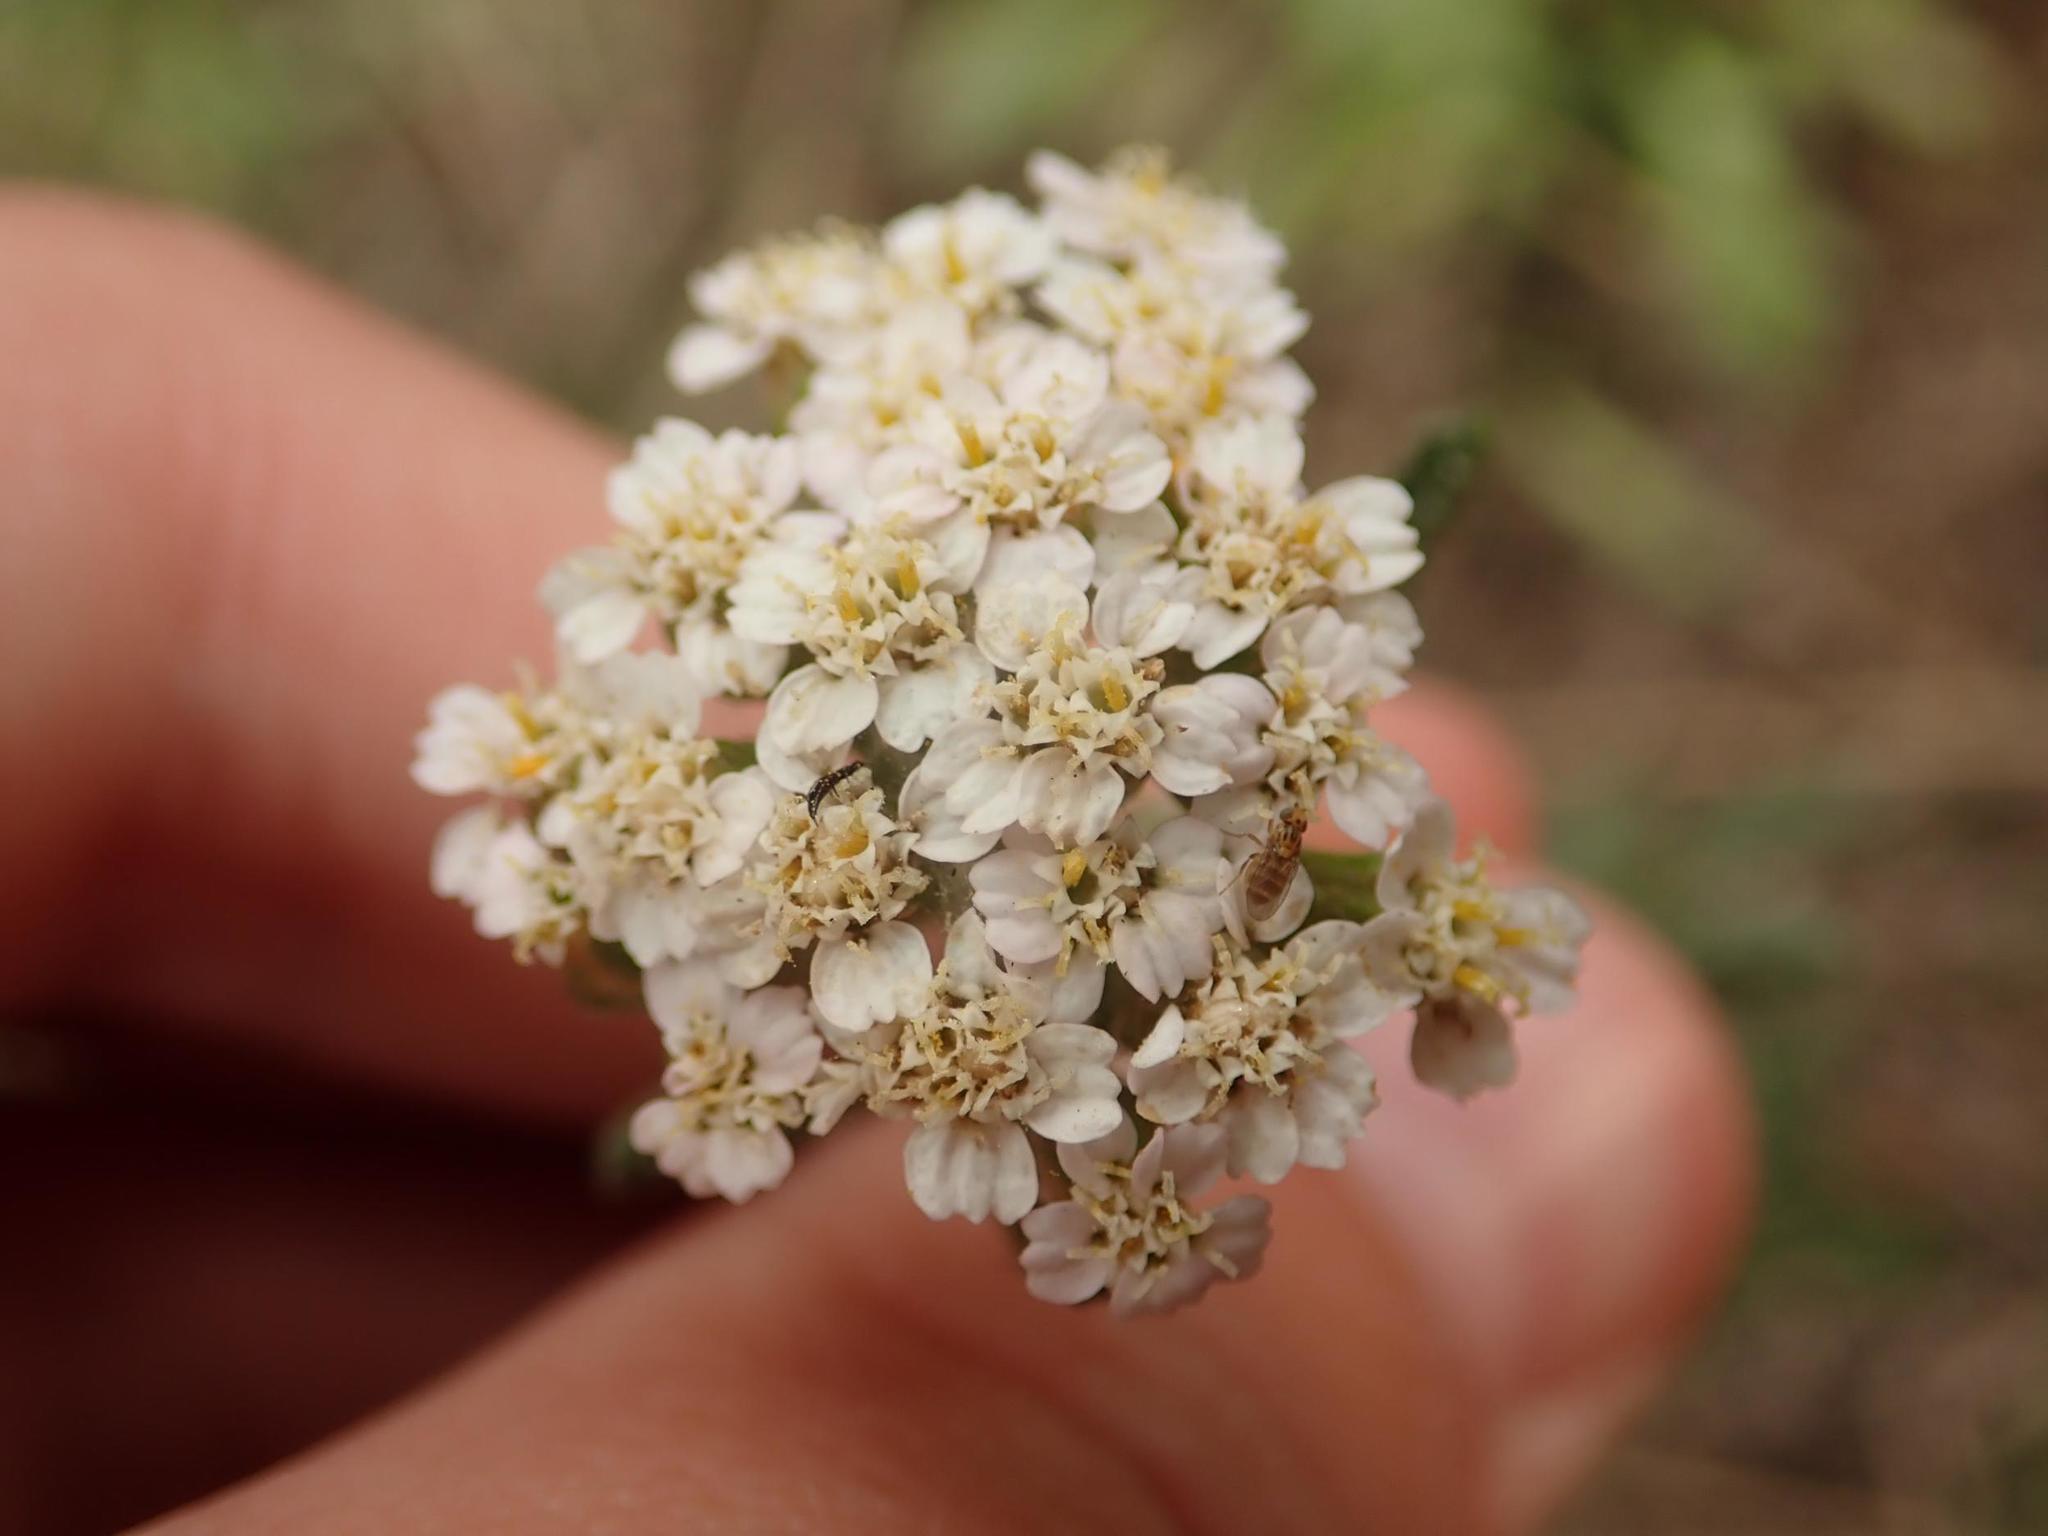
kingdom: Plantae
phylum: Tracheophyta
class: Magnoliopsida
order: Asterales
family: Asteraceae
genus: Achillea
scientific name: Achillea millefolium
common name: Yarrow
